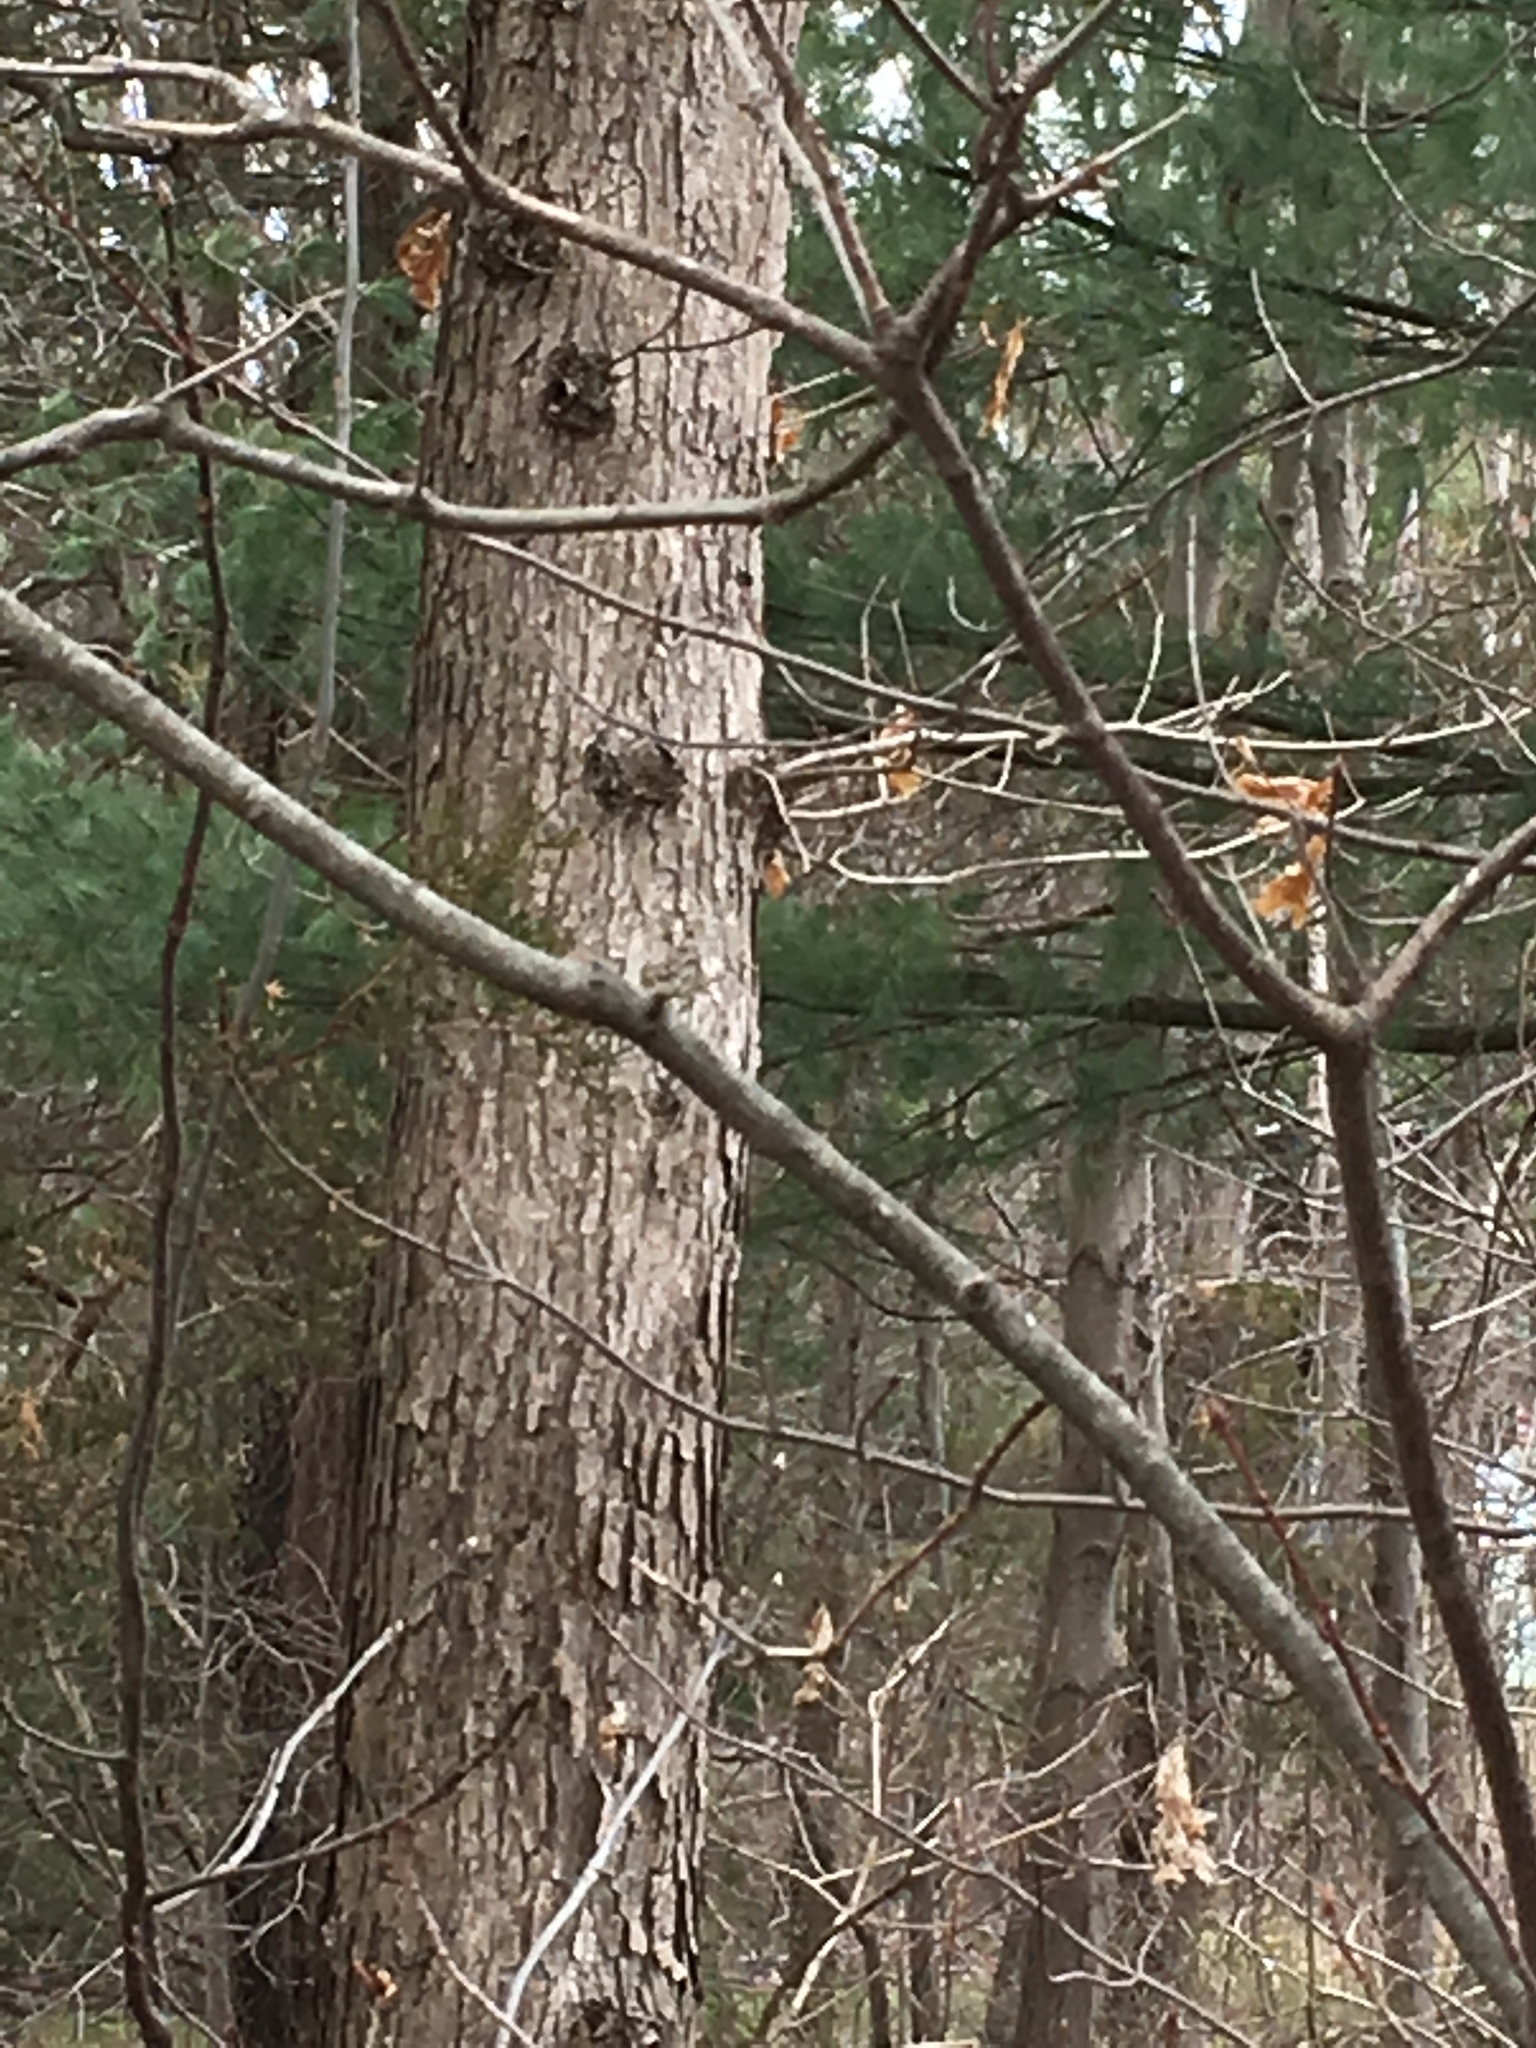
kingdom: Plantae
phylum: Tracheophyta
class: Magnoliopsida
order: Fagales
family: Fagaceae
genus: Quercus
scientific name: Quercus alba
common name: White oak
